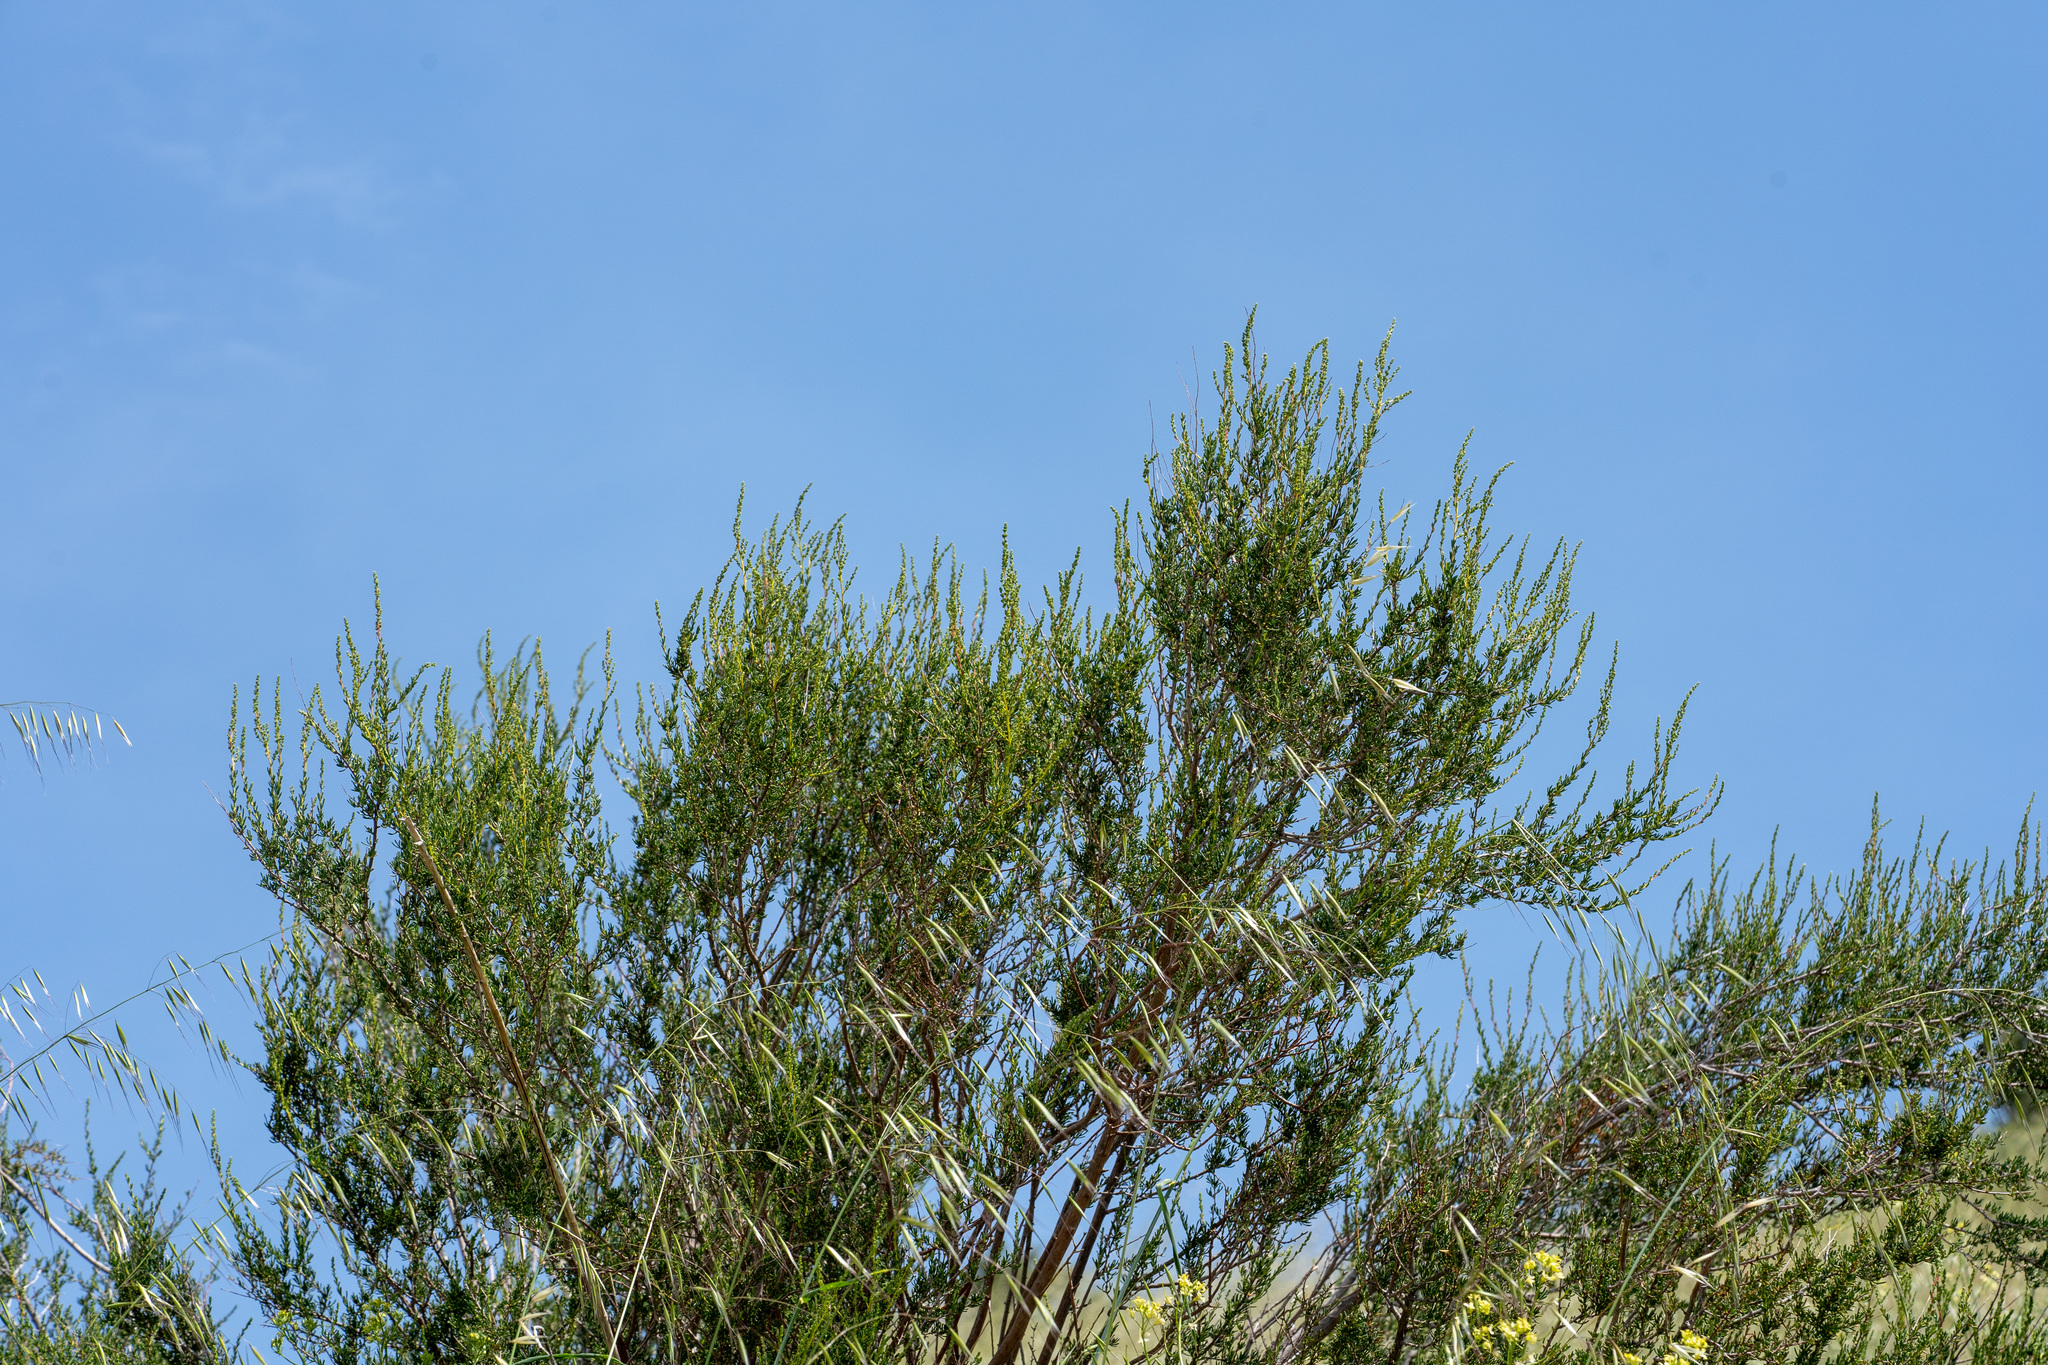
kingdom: Plantae
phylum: Tracheophyta
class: Magnoliopsida
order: Rosales
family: Rosaceae
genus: Adenostoma
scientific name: Adenostoma fasciculatum
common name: Chamise
